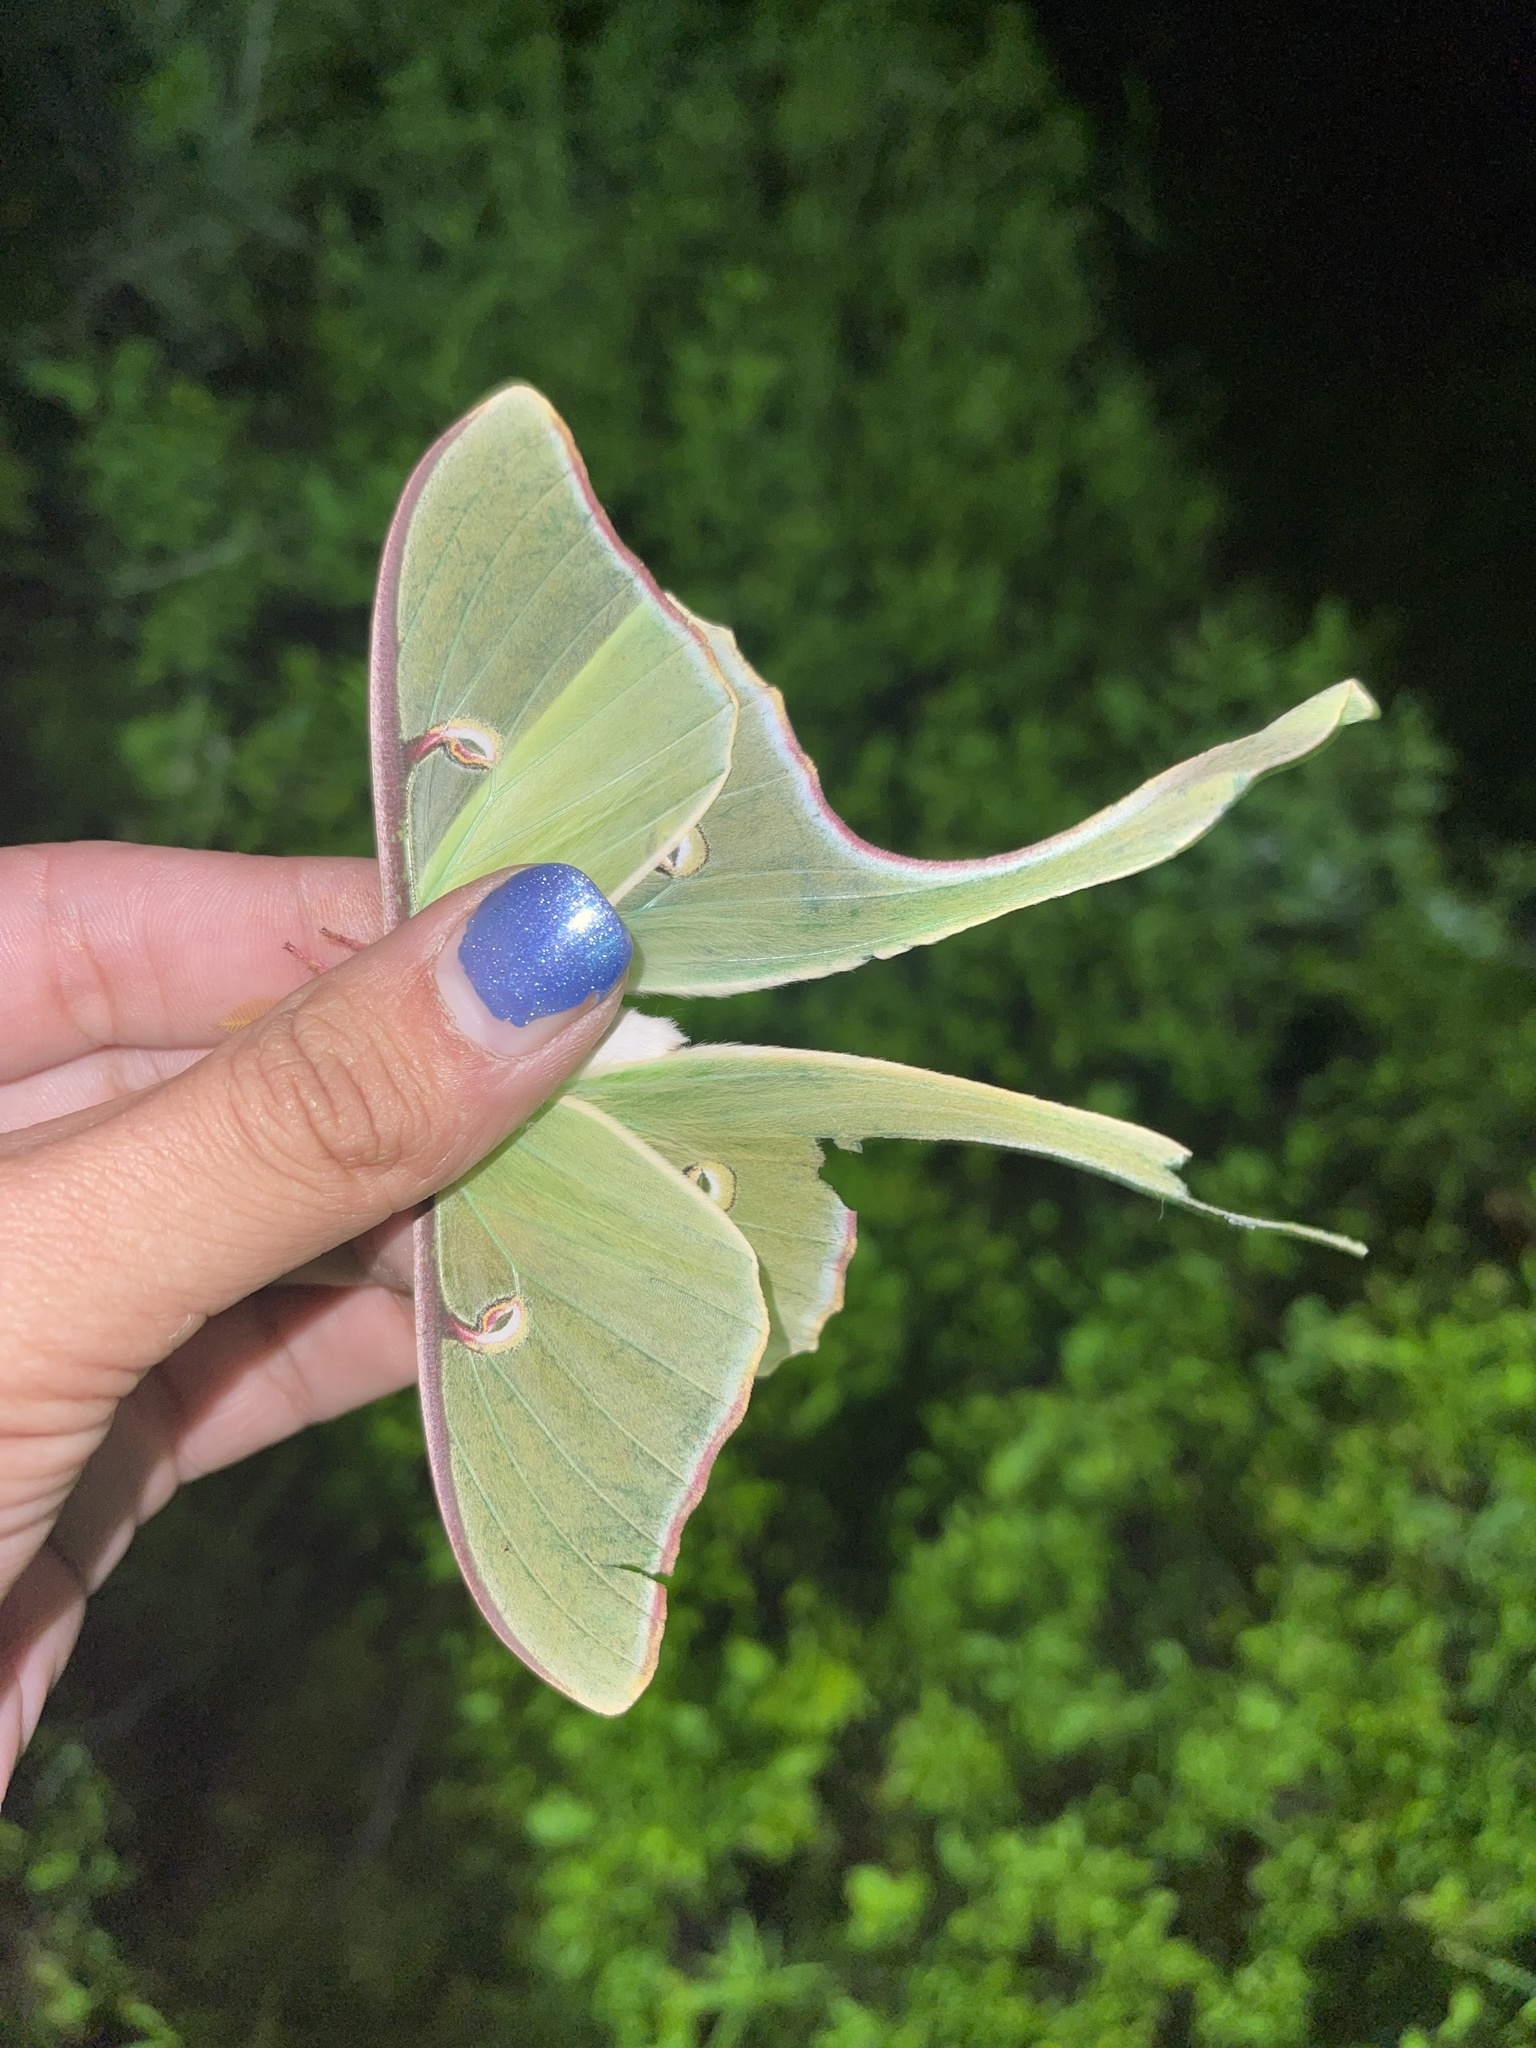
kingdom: Animalia
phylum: Arthropoda
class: Insecta
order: Lepidoptera
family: Saturniidae
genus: Actias
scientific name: Actias luna
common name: Luna moth
